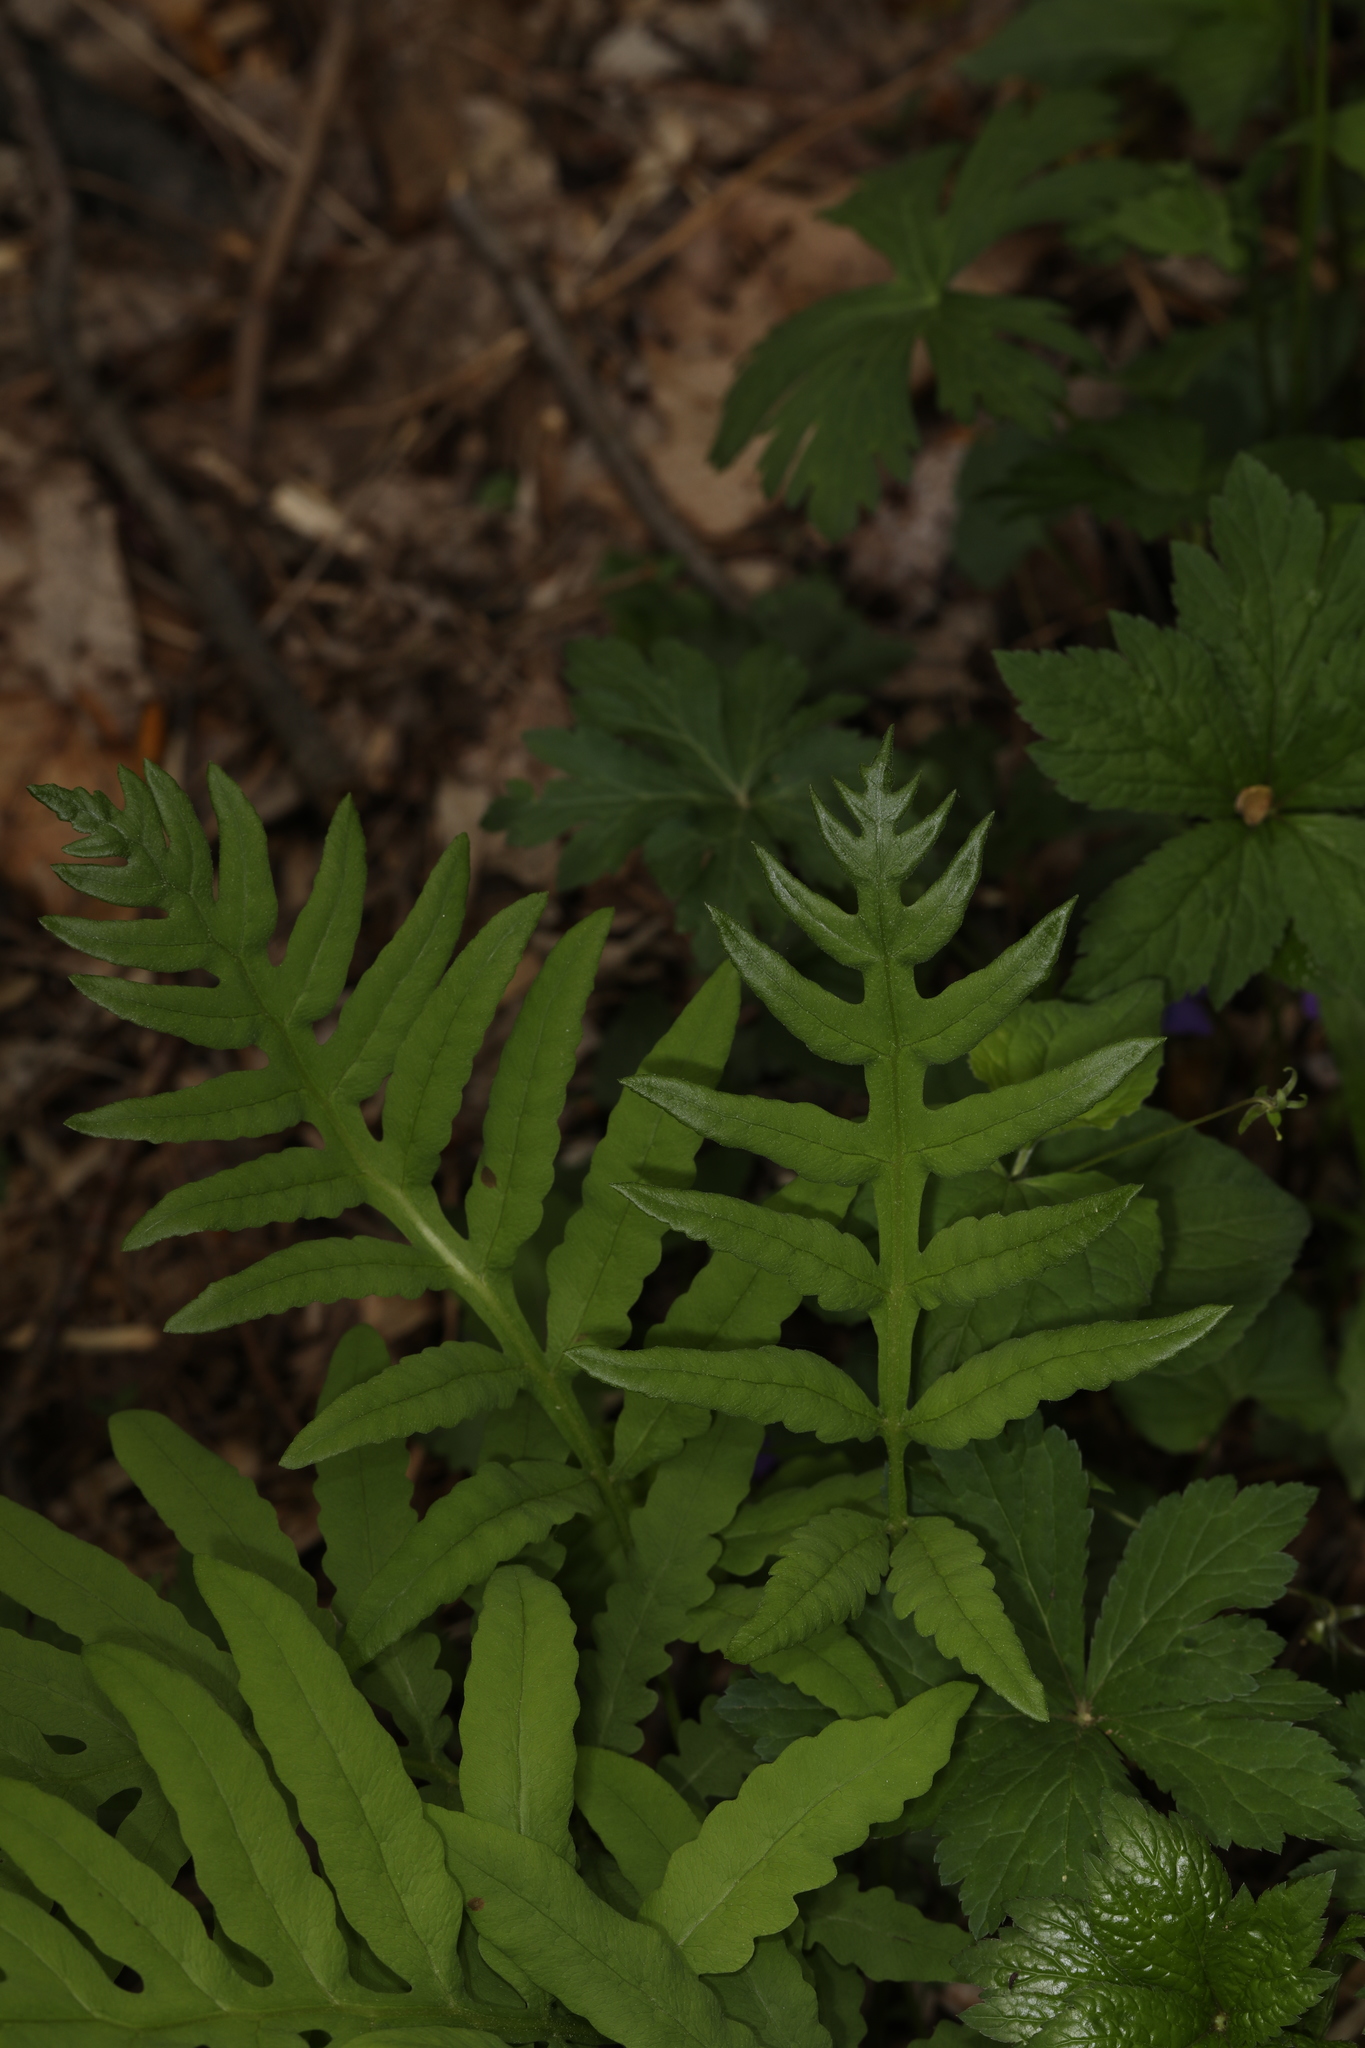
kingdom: Plantae
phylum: Tracheophyta
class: Polypodiopsida
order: Polypodiales
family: Onocleaceae
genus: Onoclea
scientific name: Onoclea sensibilis
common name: Sensitive fern
